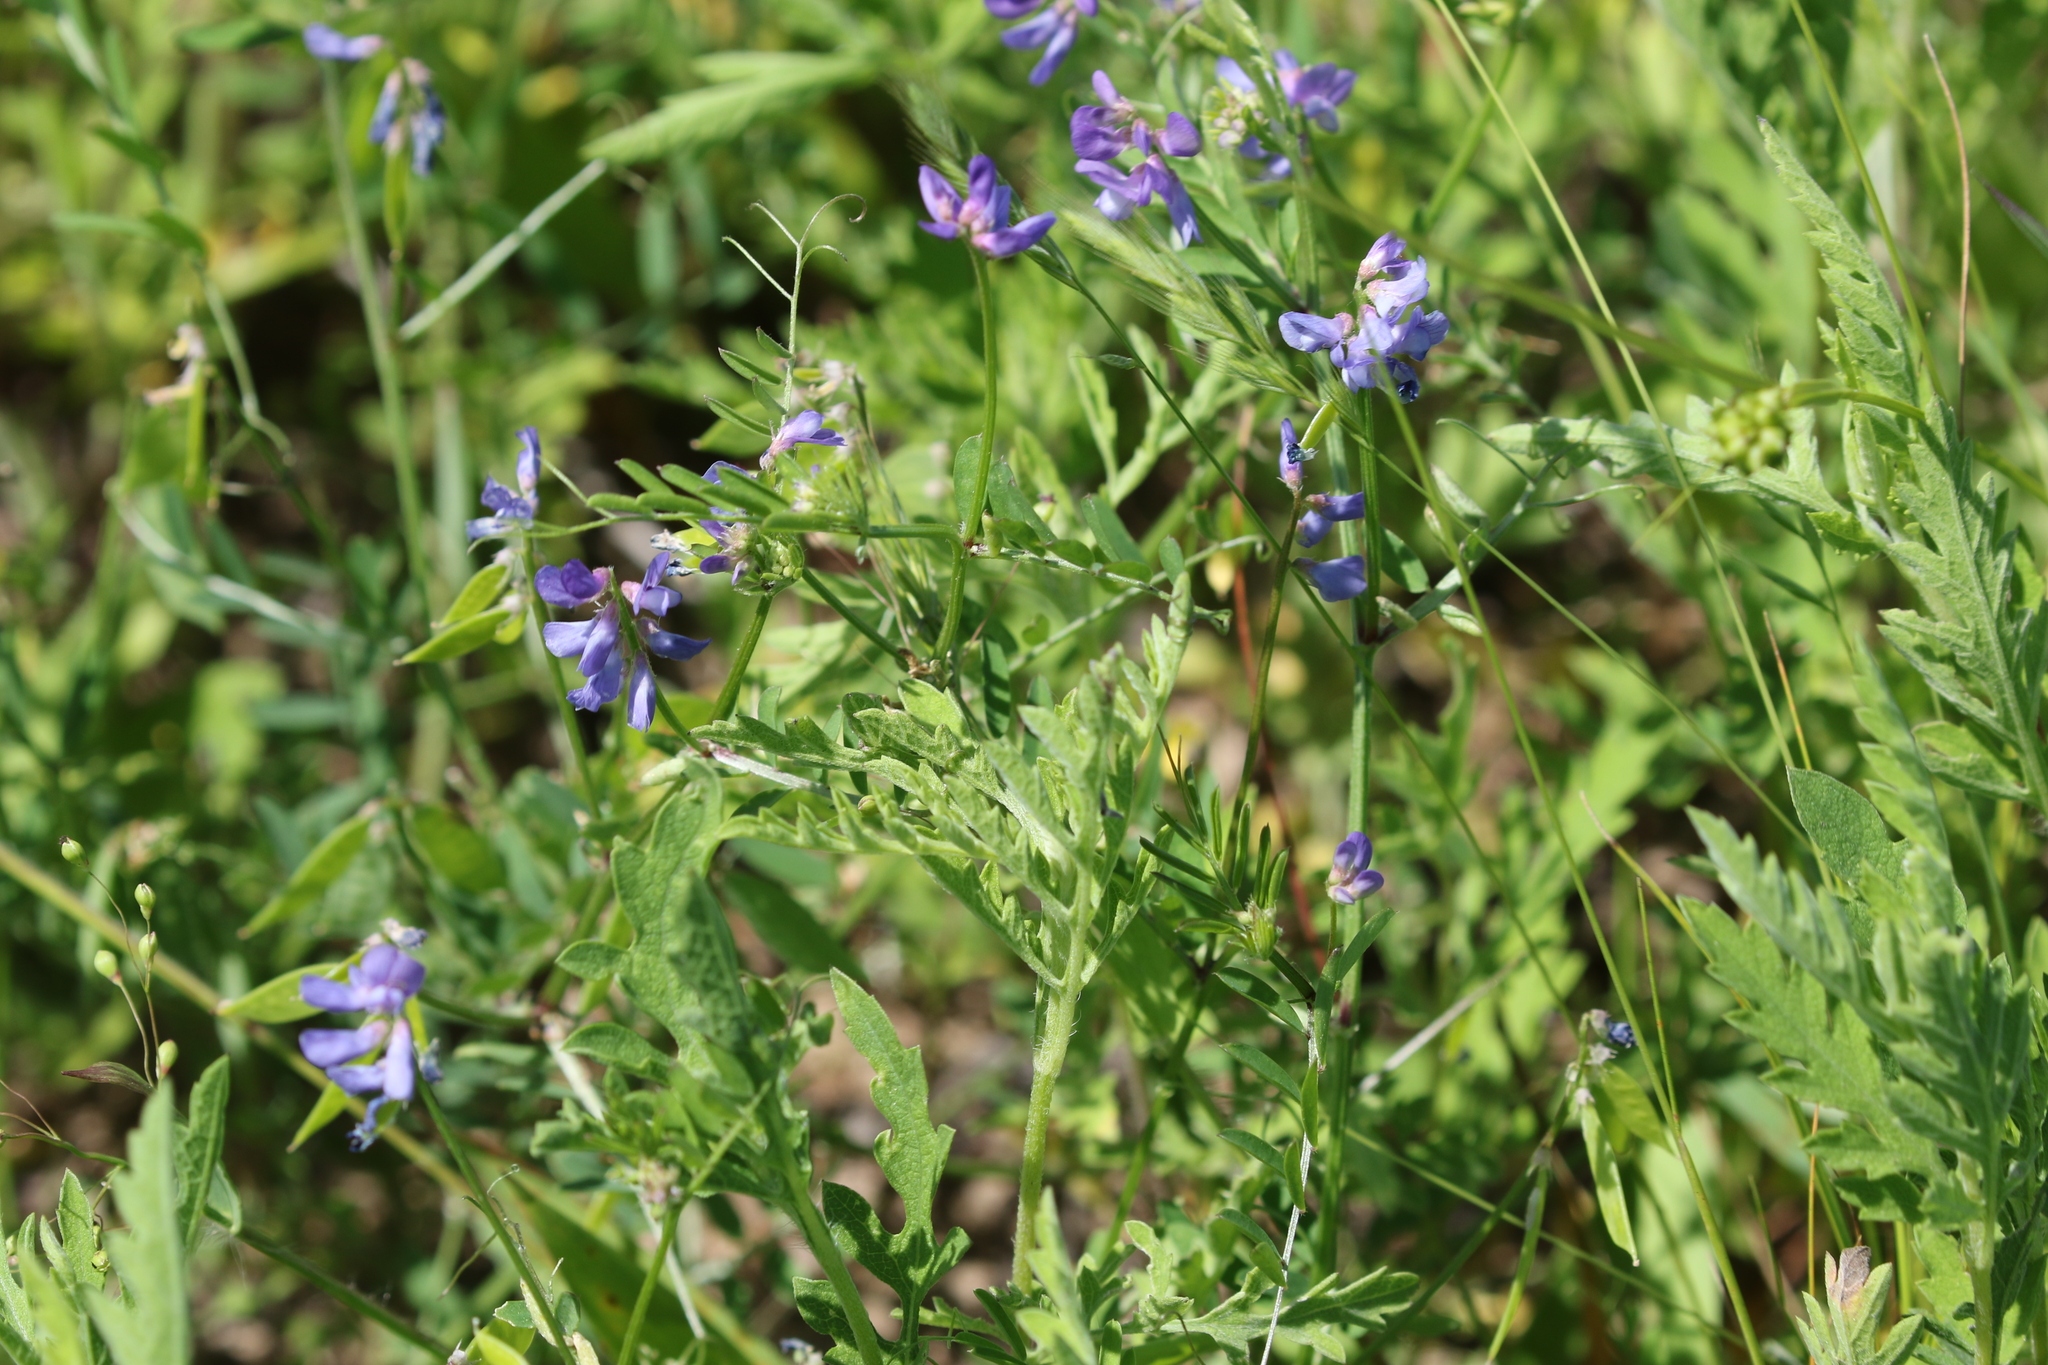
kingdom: Plantae
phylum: Tracheophyta
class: Magnoliopsida
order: Fabales
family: Fabaceae
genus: Vicia
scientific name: Vicia ludoviciana
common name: Louisiana vetch
